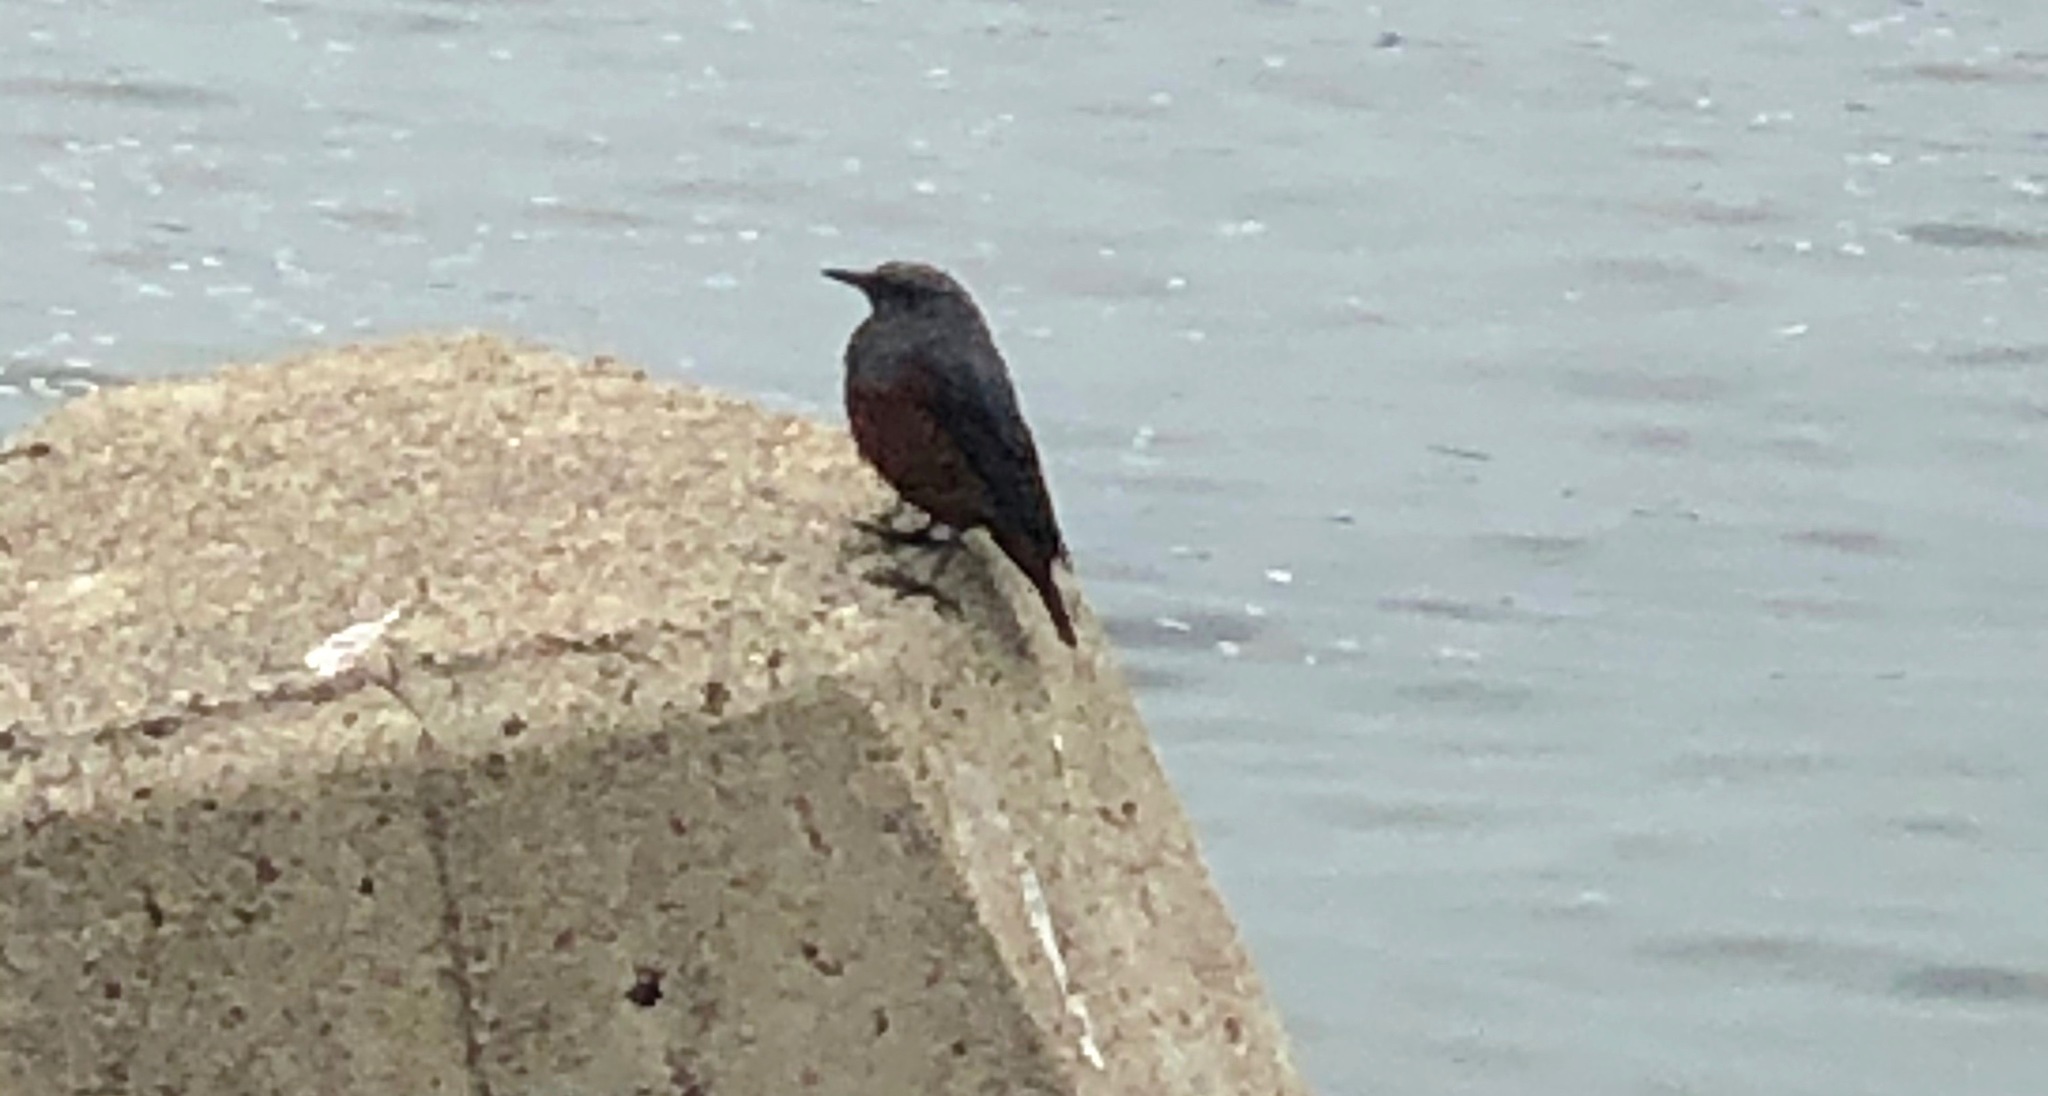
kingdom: Animalia
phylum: Chordata
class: Aves
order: Passeriformes
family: Muscicapidae
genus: Monticola
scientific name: Monticola solitarius
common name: Blue rock thrush
